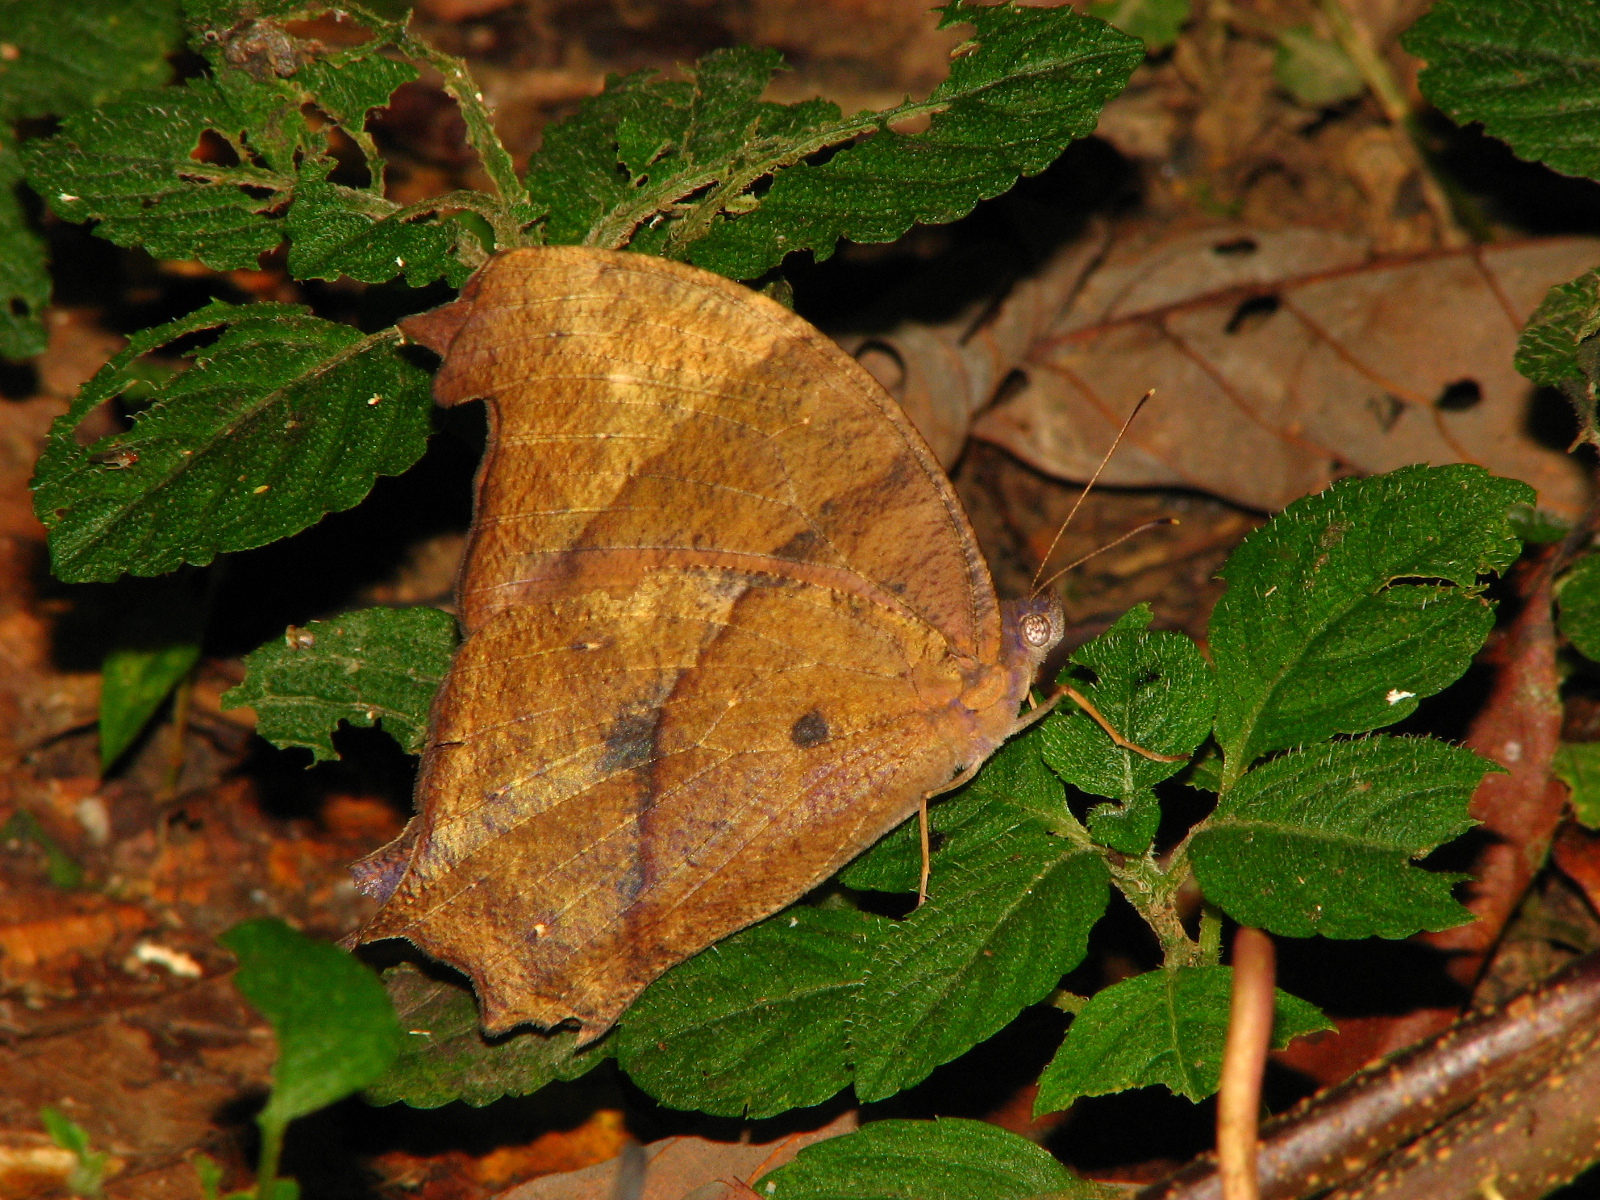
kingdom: Animalia
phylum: Arthropoda
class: Insecta
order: Lepidoptera
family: Nymphalidae
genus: Melanitis
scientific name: Melanitis zitenius
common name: Great evening brown
